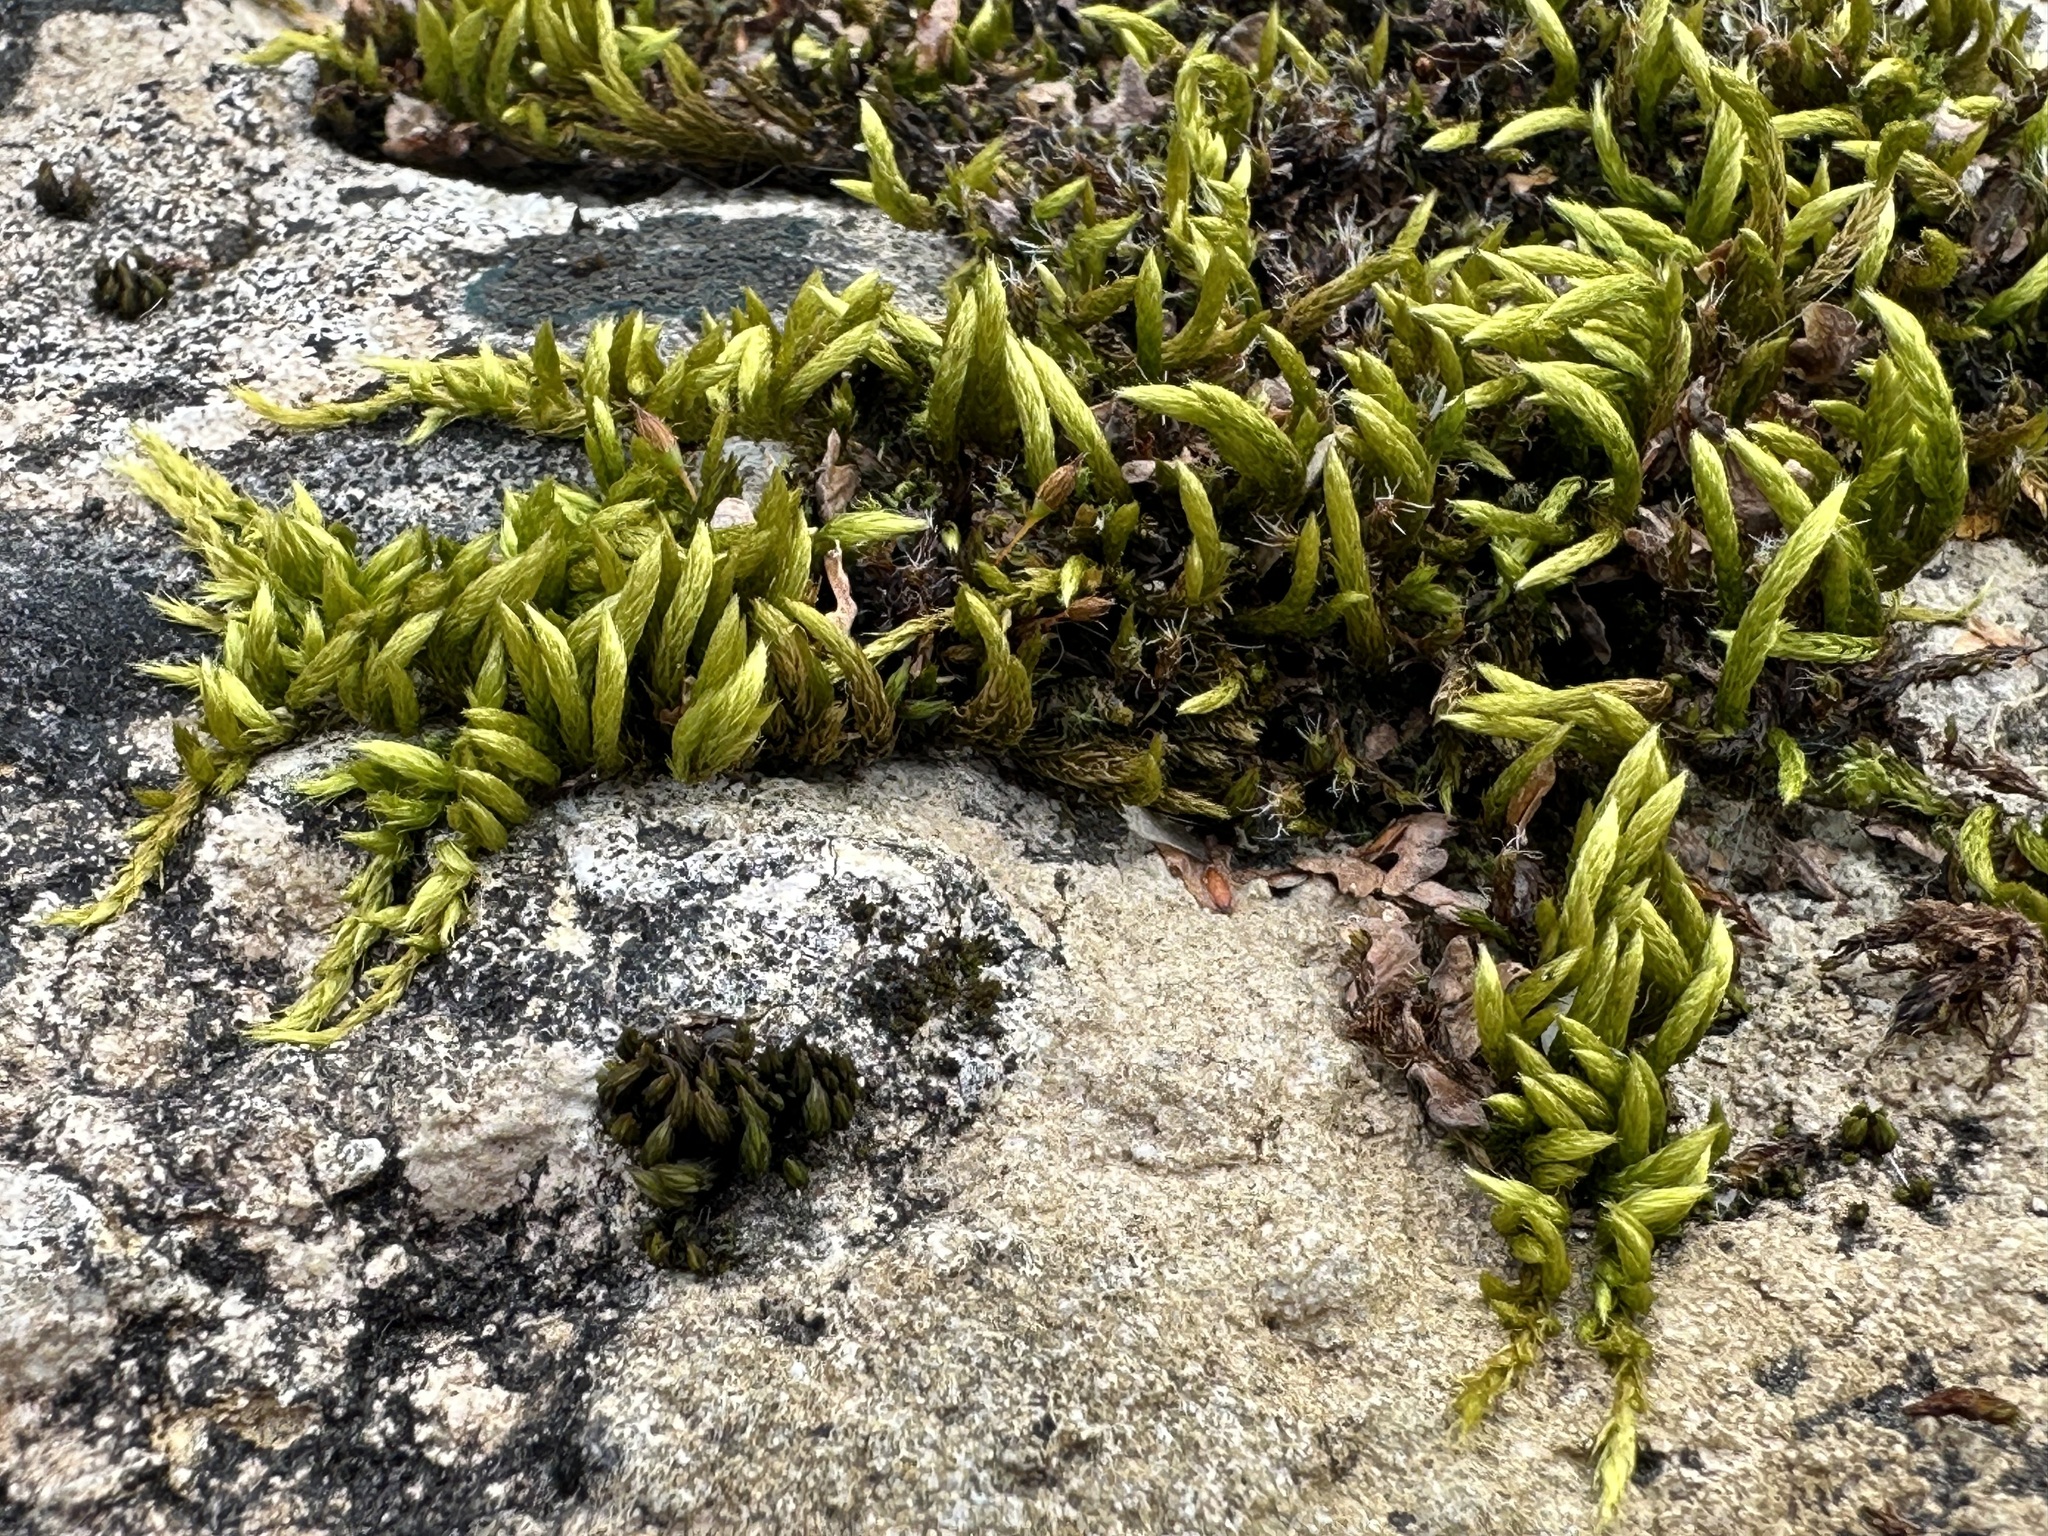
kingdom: Plantae
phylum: Bryophyta
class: Bryopsida
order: Hypnales
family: Brachytheciaceae
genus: Homalothecium
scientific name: Homalothecium sericeum
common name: Silky wall feather-moss
